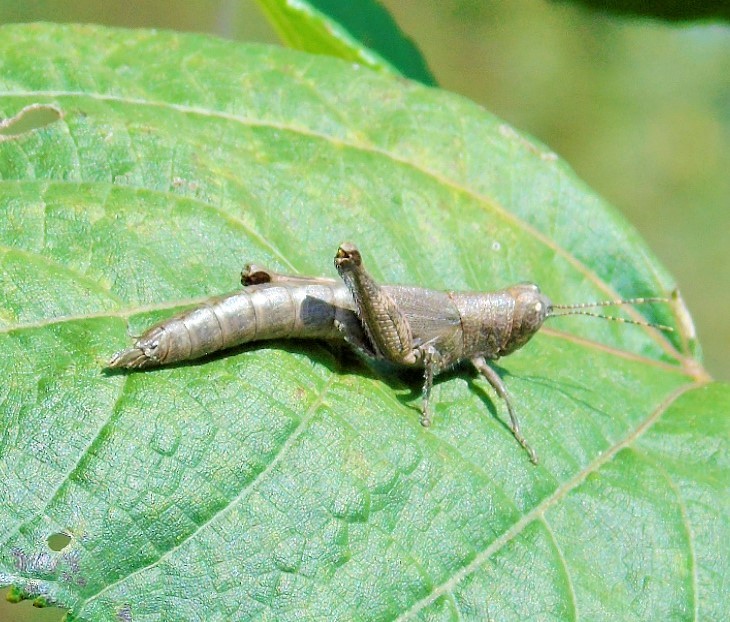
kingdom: Animalia
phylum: Arthropoda
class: Insecta
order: Orthoptera
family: Acrididae
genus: Proctolabus
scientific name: Proctolabus cerciatus
